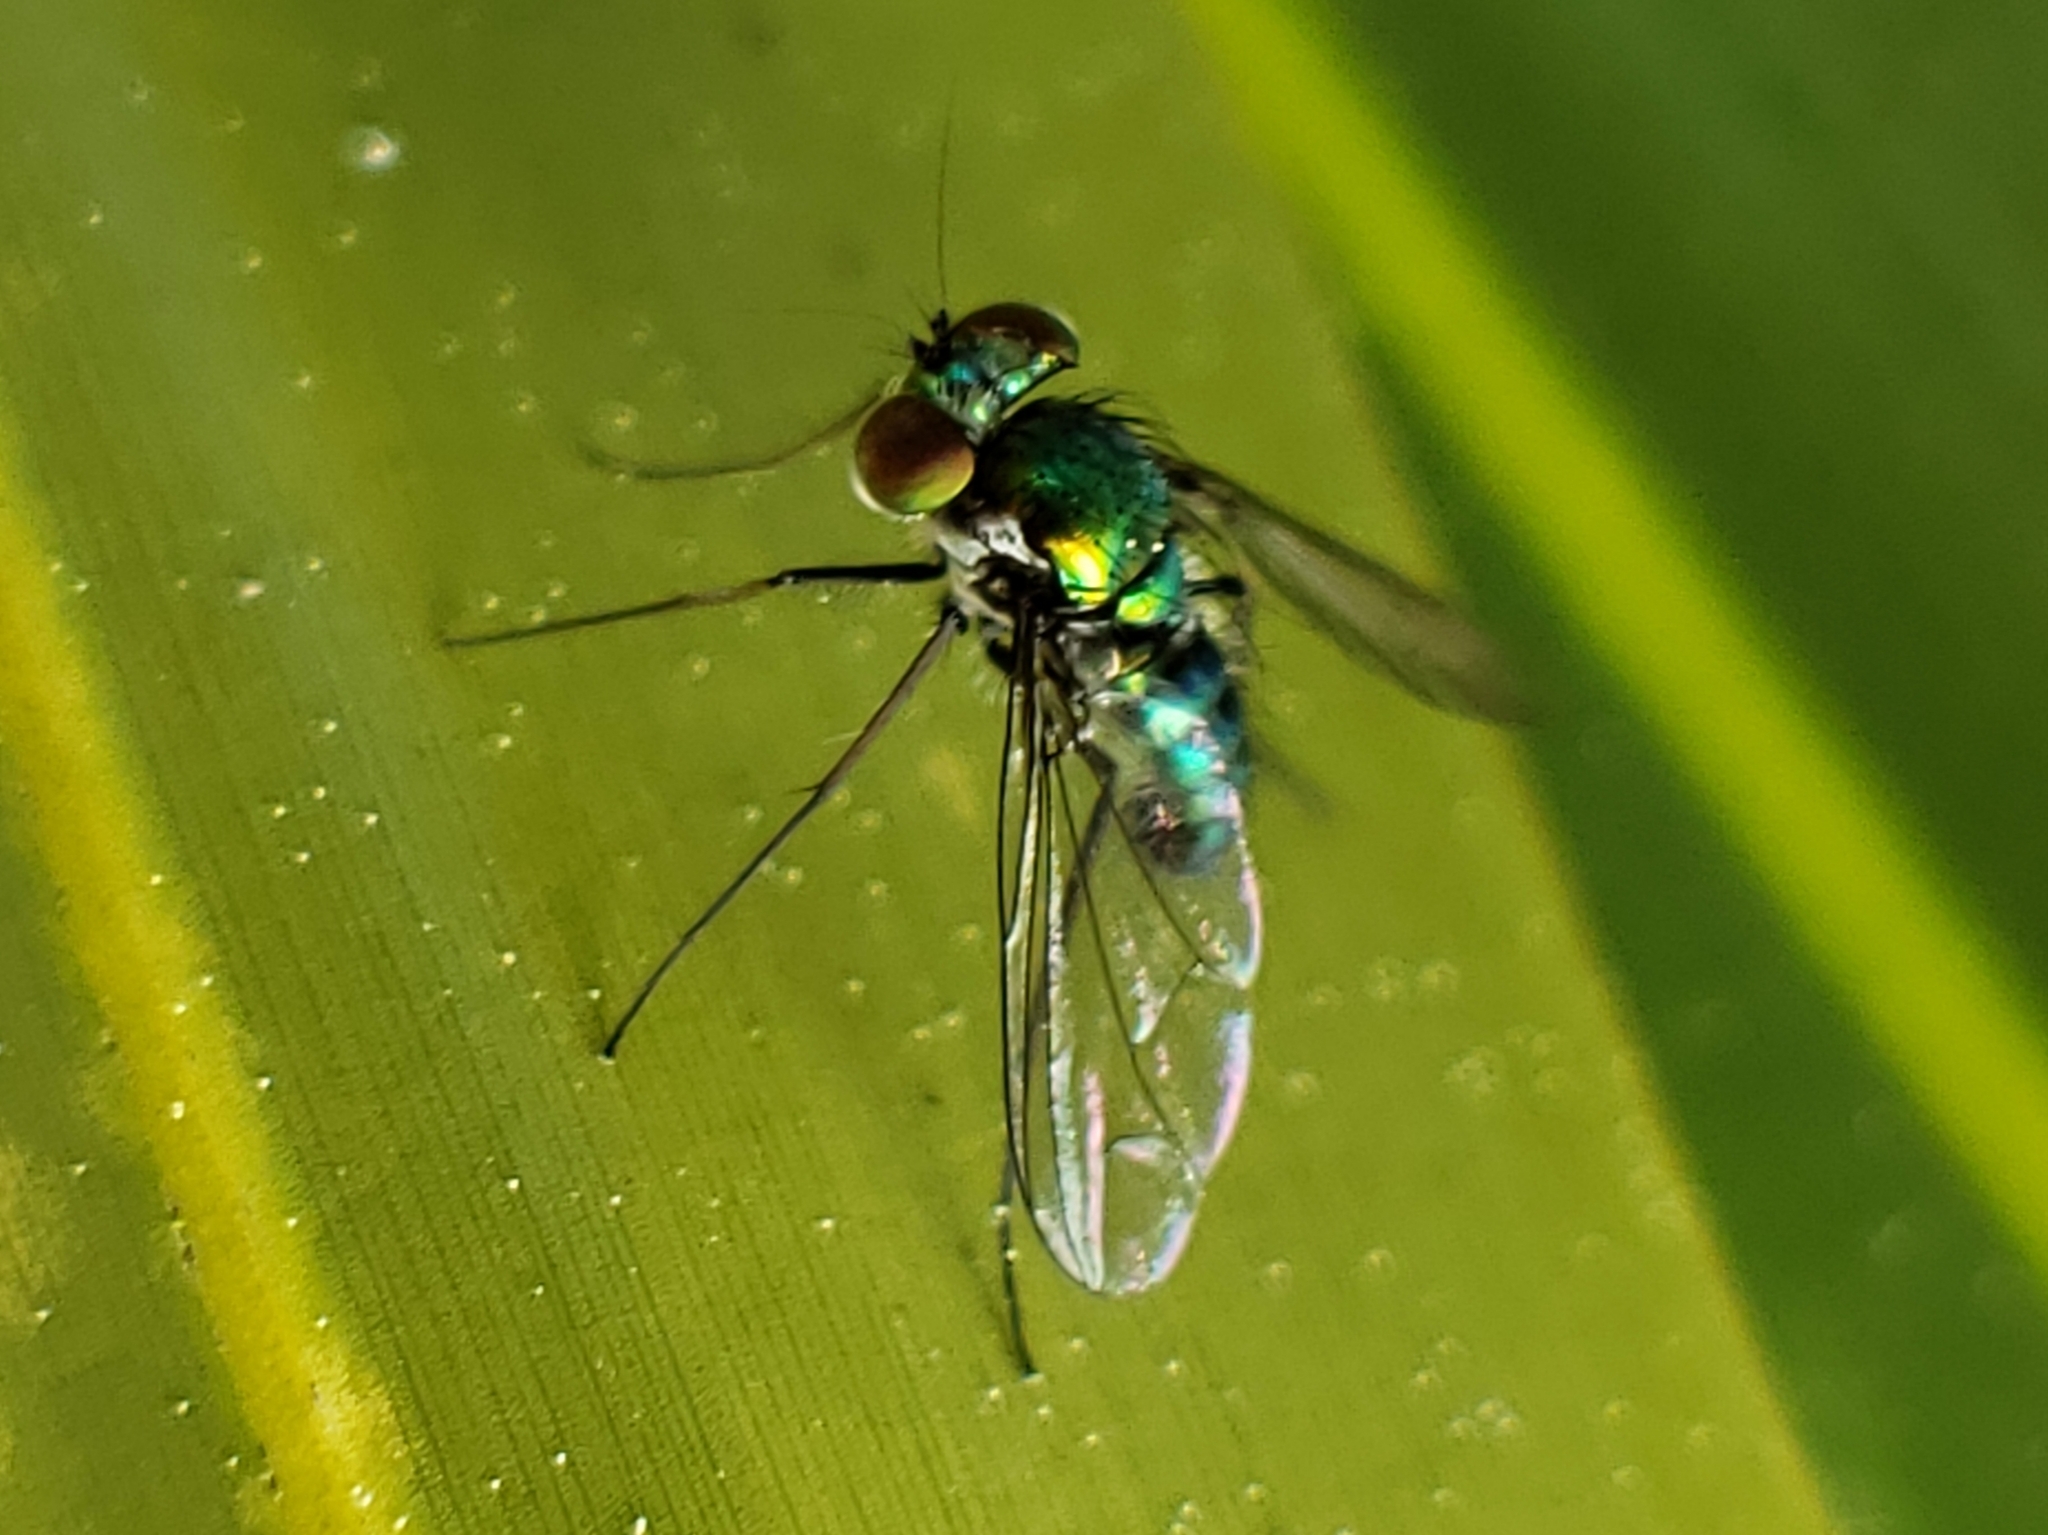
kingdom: Animalia
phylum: Arthropoda
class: Insecta
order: Diptera
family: Dolichopodidae
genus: Condylostylus
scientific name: Condylostylus longicornis
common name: Long-legged fly
